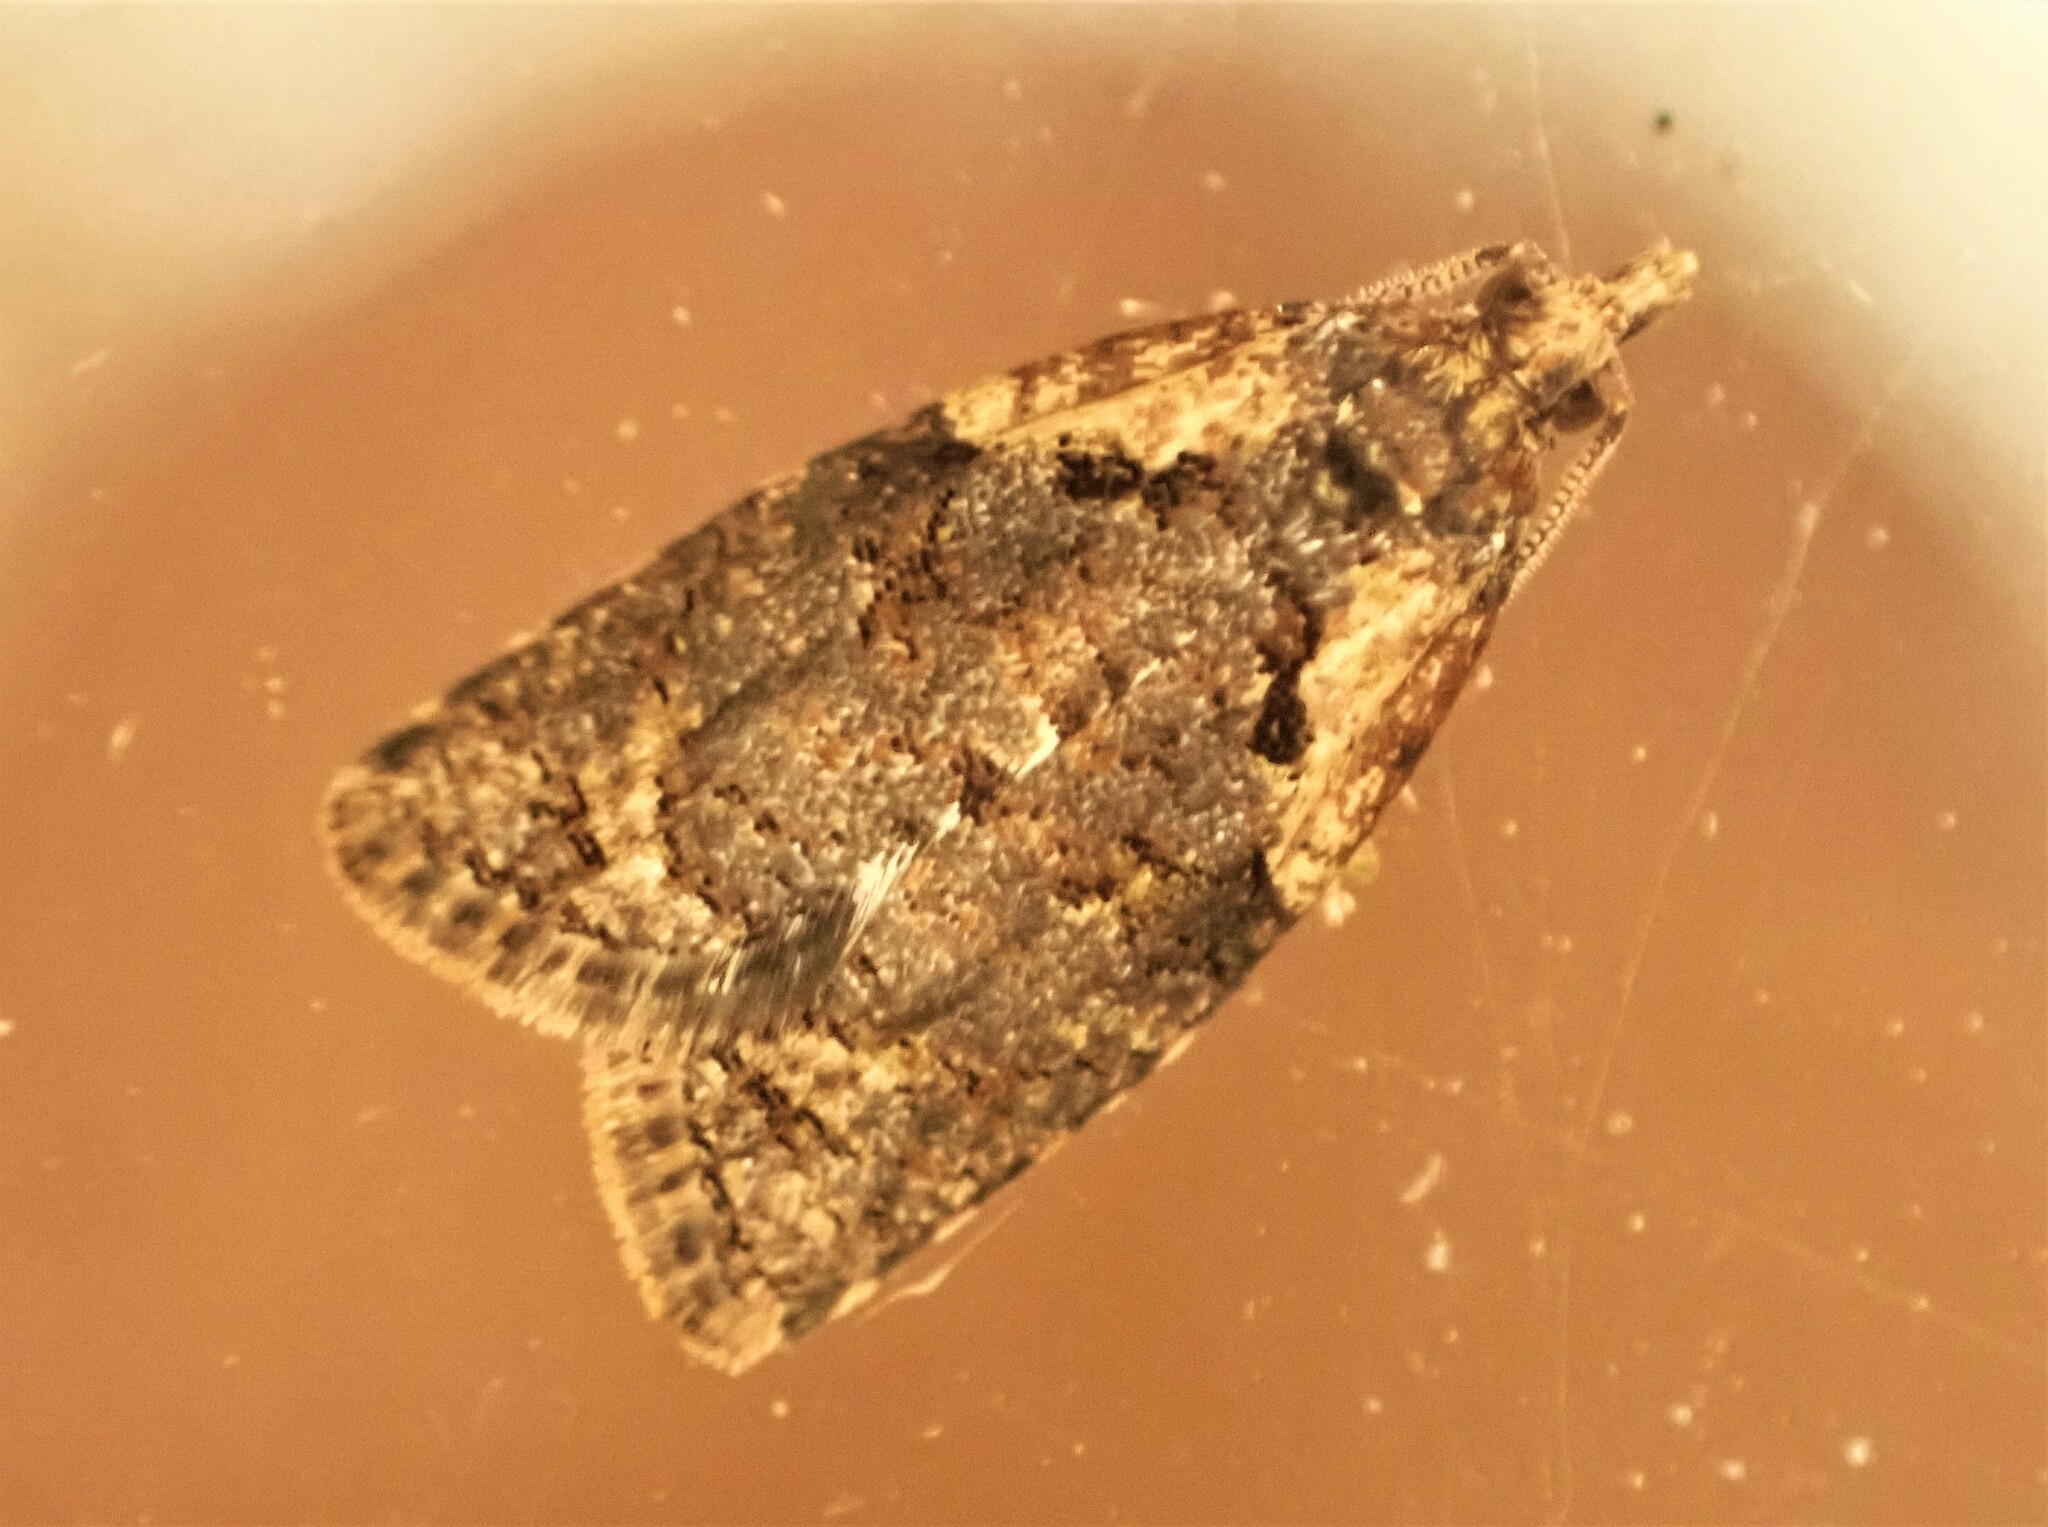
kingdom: Animalia
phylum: Arthropoda
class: Insecta
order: Lepidoptera
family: Tortricidae
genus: Capua
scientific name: Capua intractana
